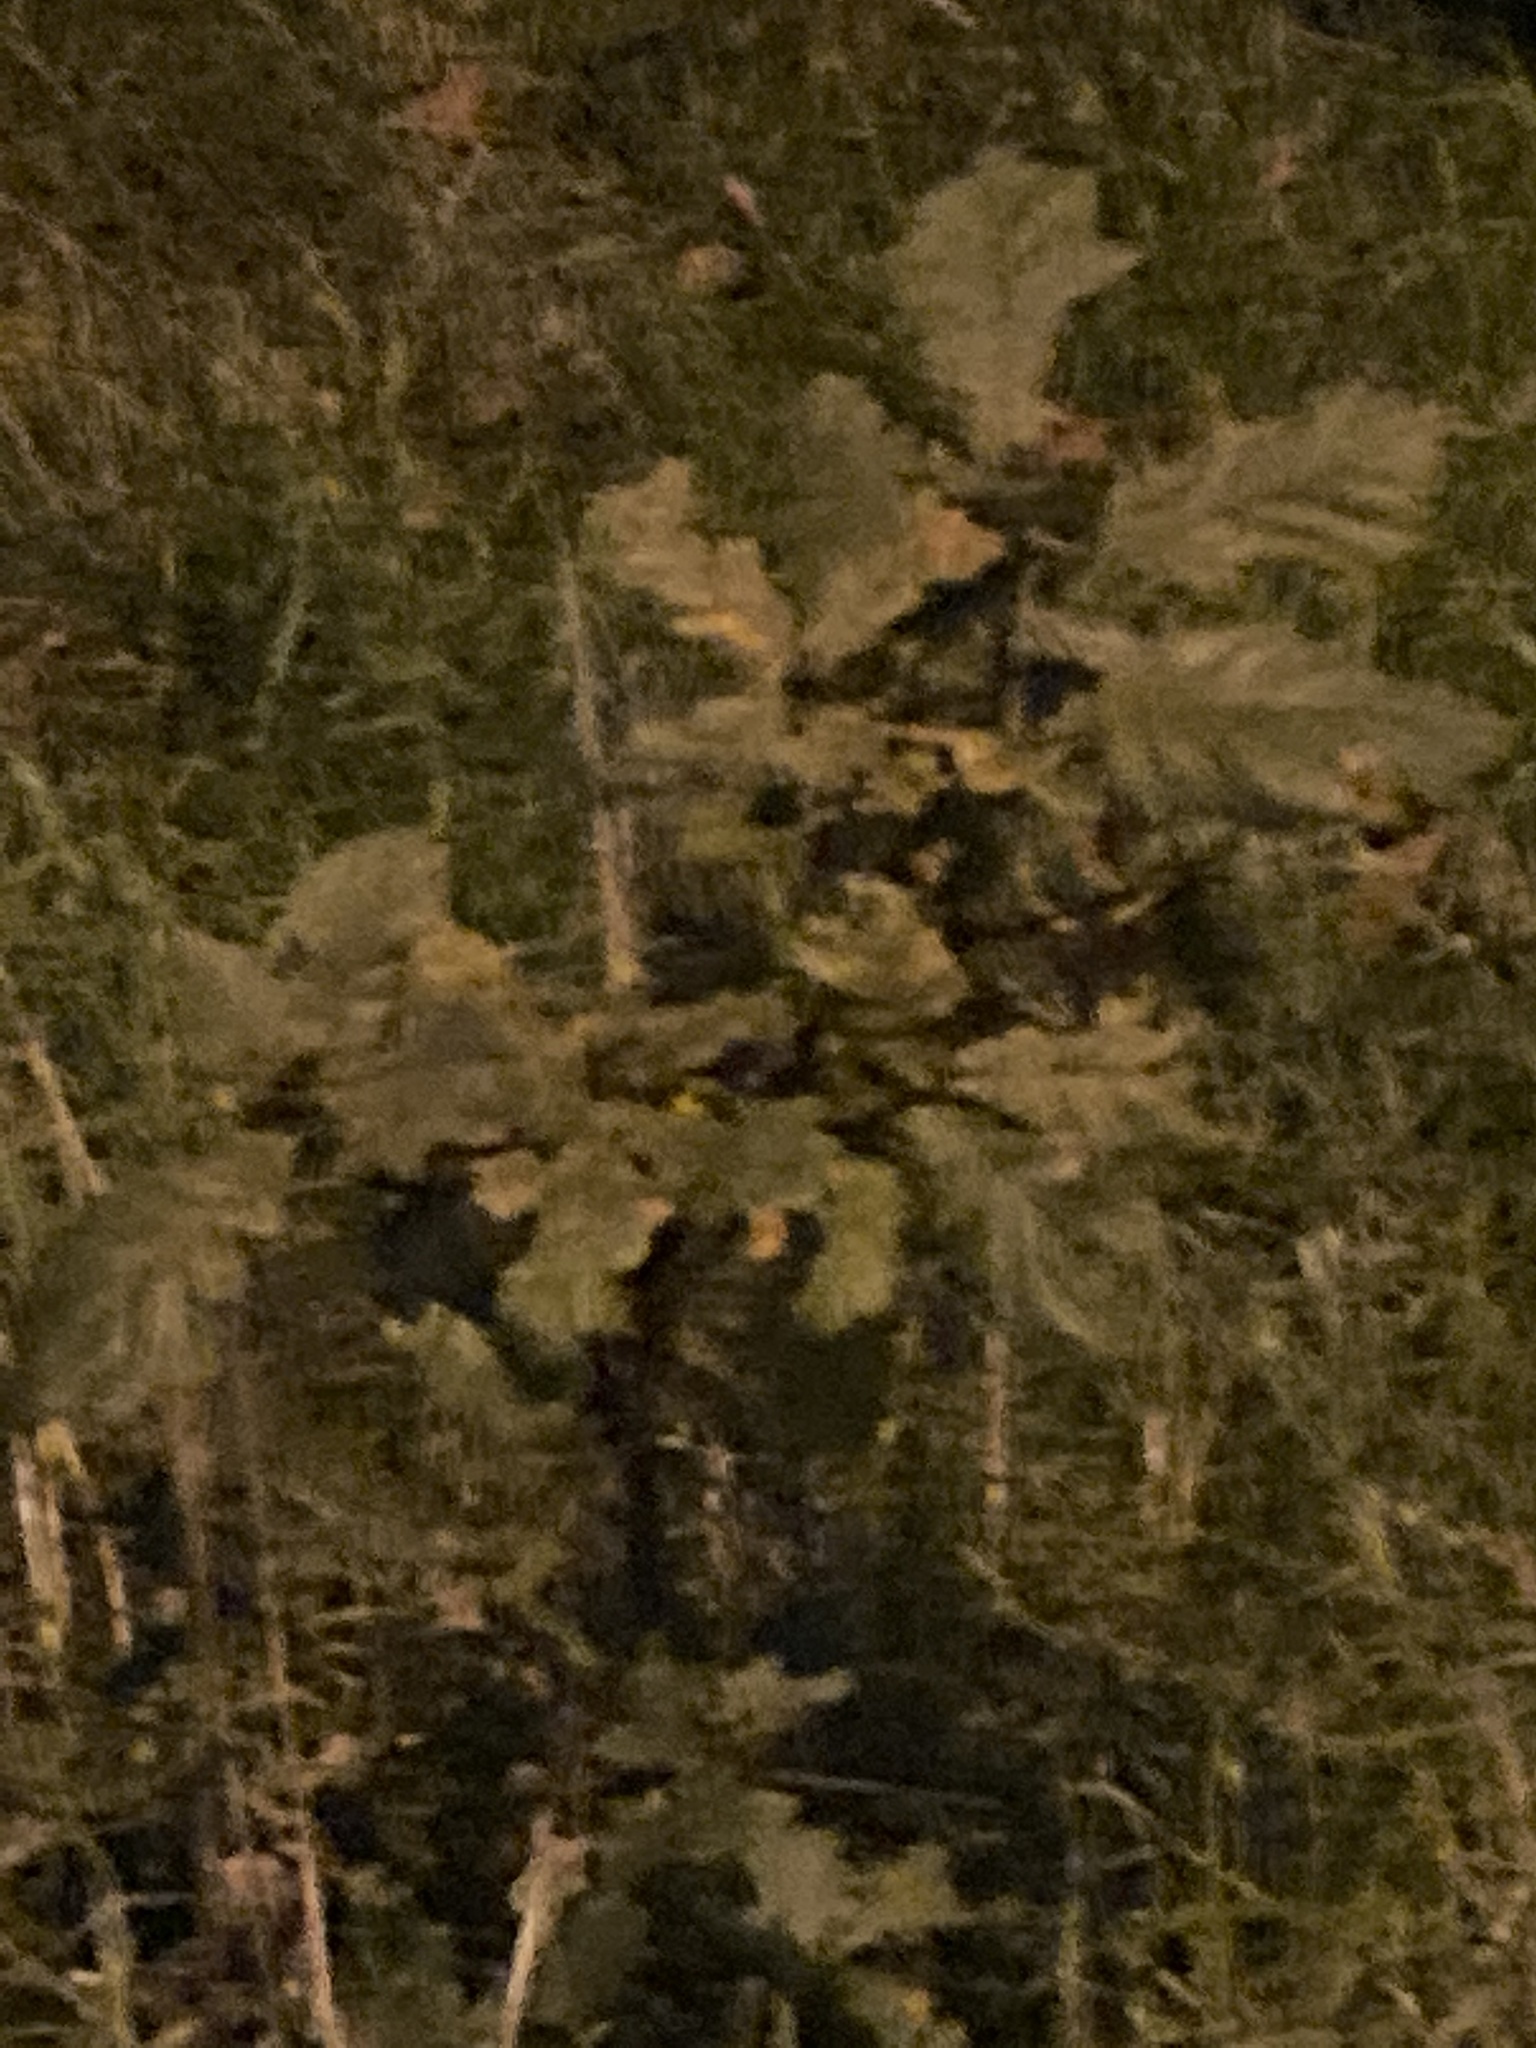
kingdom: Plantae
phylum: Tracheophyta
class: Magnoliopsida
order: Fagales
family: Fagaceae
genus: Quercus
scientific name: Quercus robur
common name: Pedunculate oak
